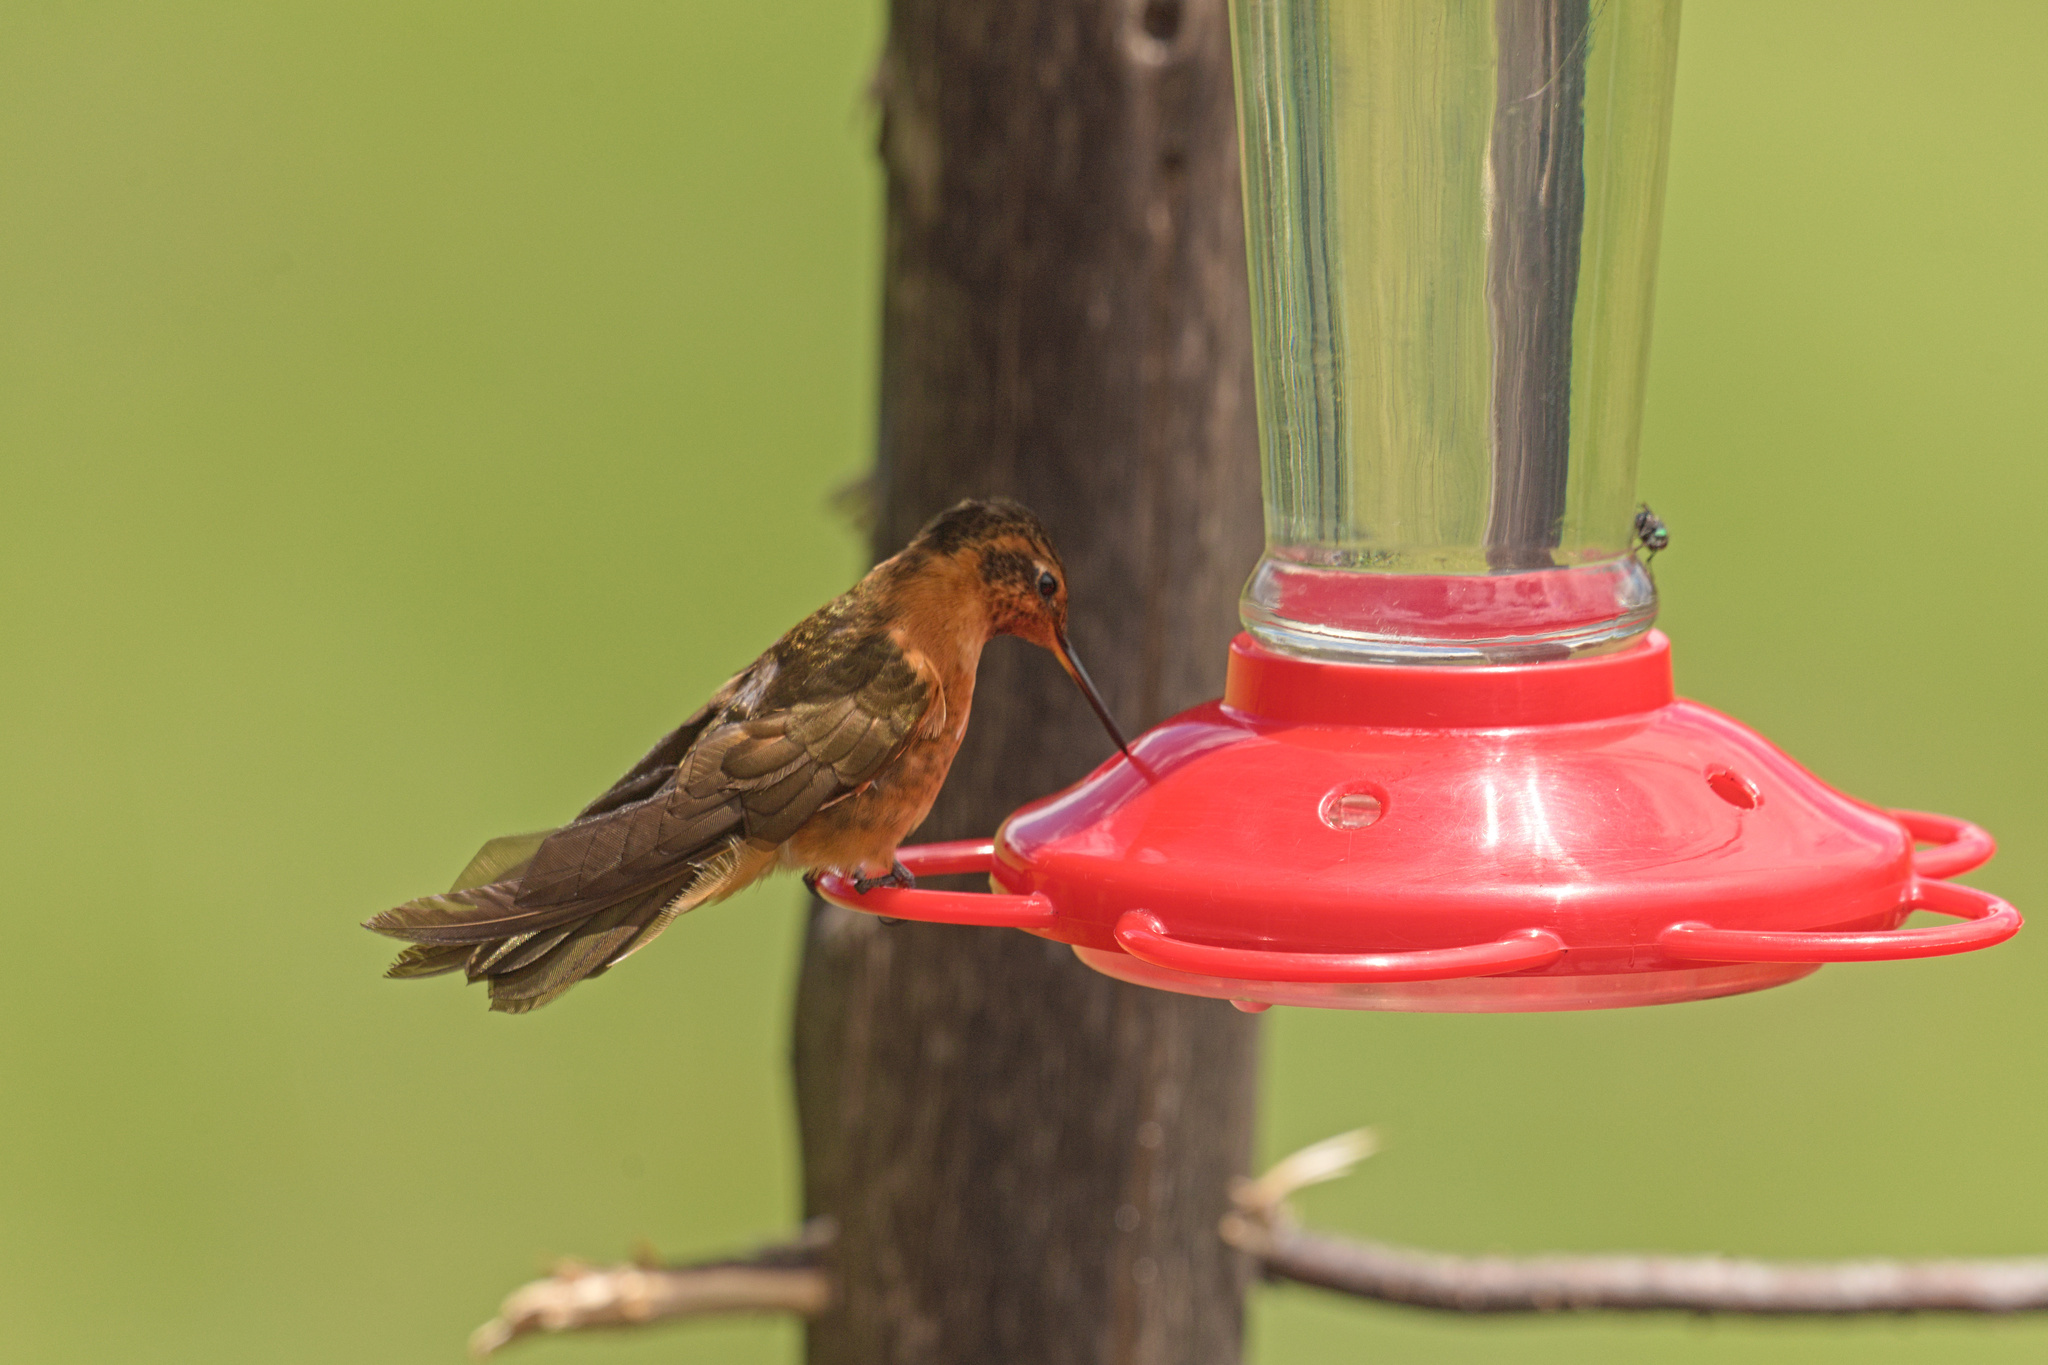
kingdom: Animalia
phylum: Chordata
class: Aves
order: Apodiformes
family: Trochilidae
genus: Aglaeactis
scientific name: Aglaeactis cupripennis
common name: Shining sunbeam
